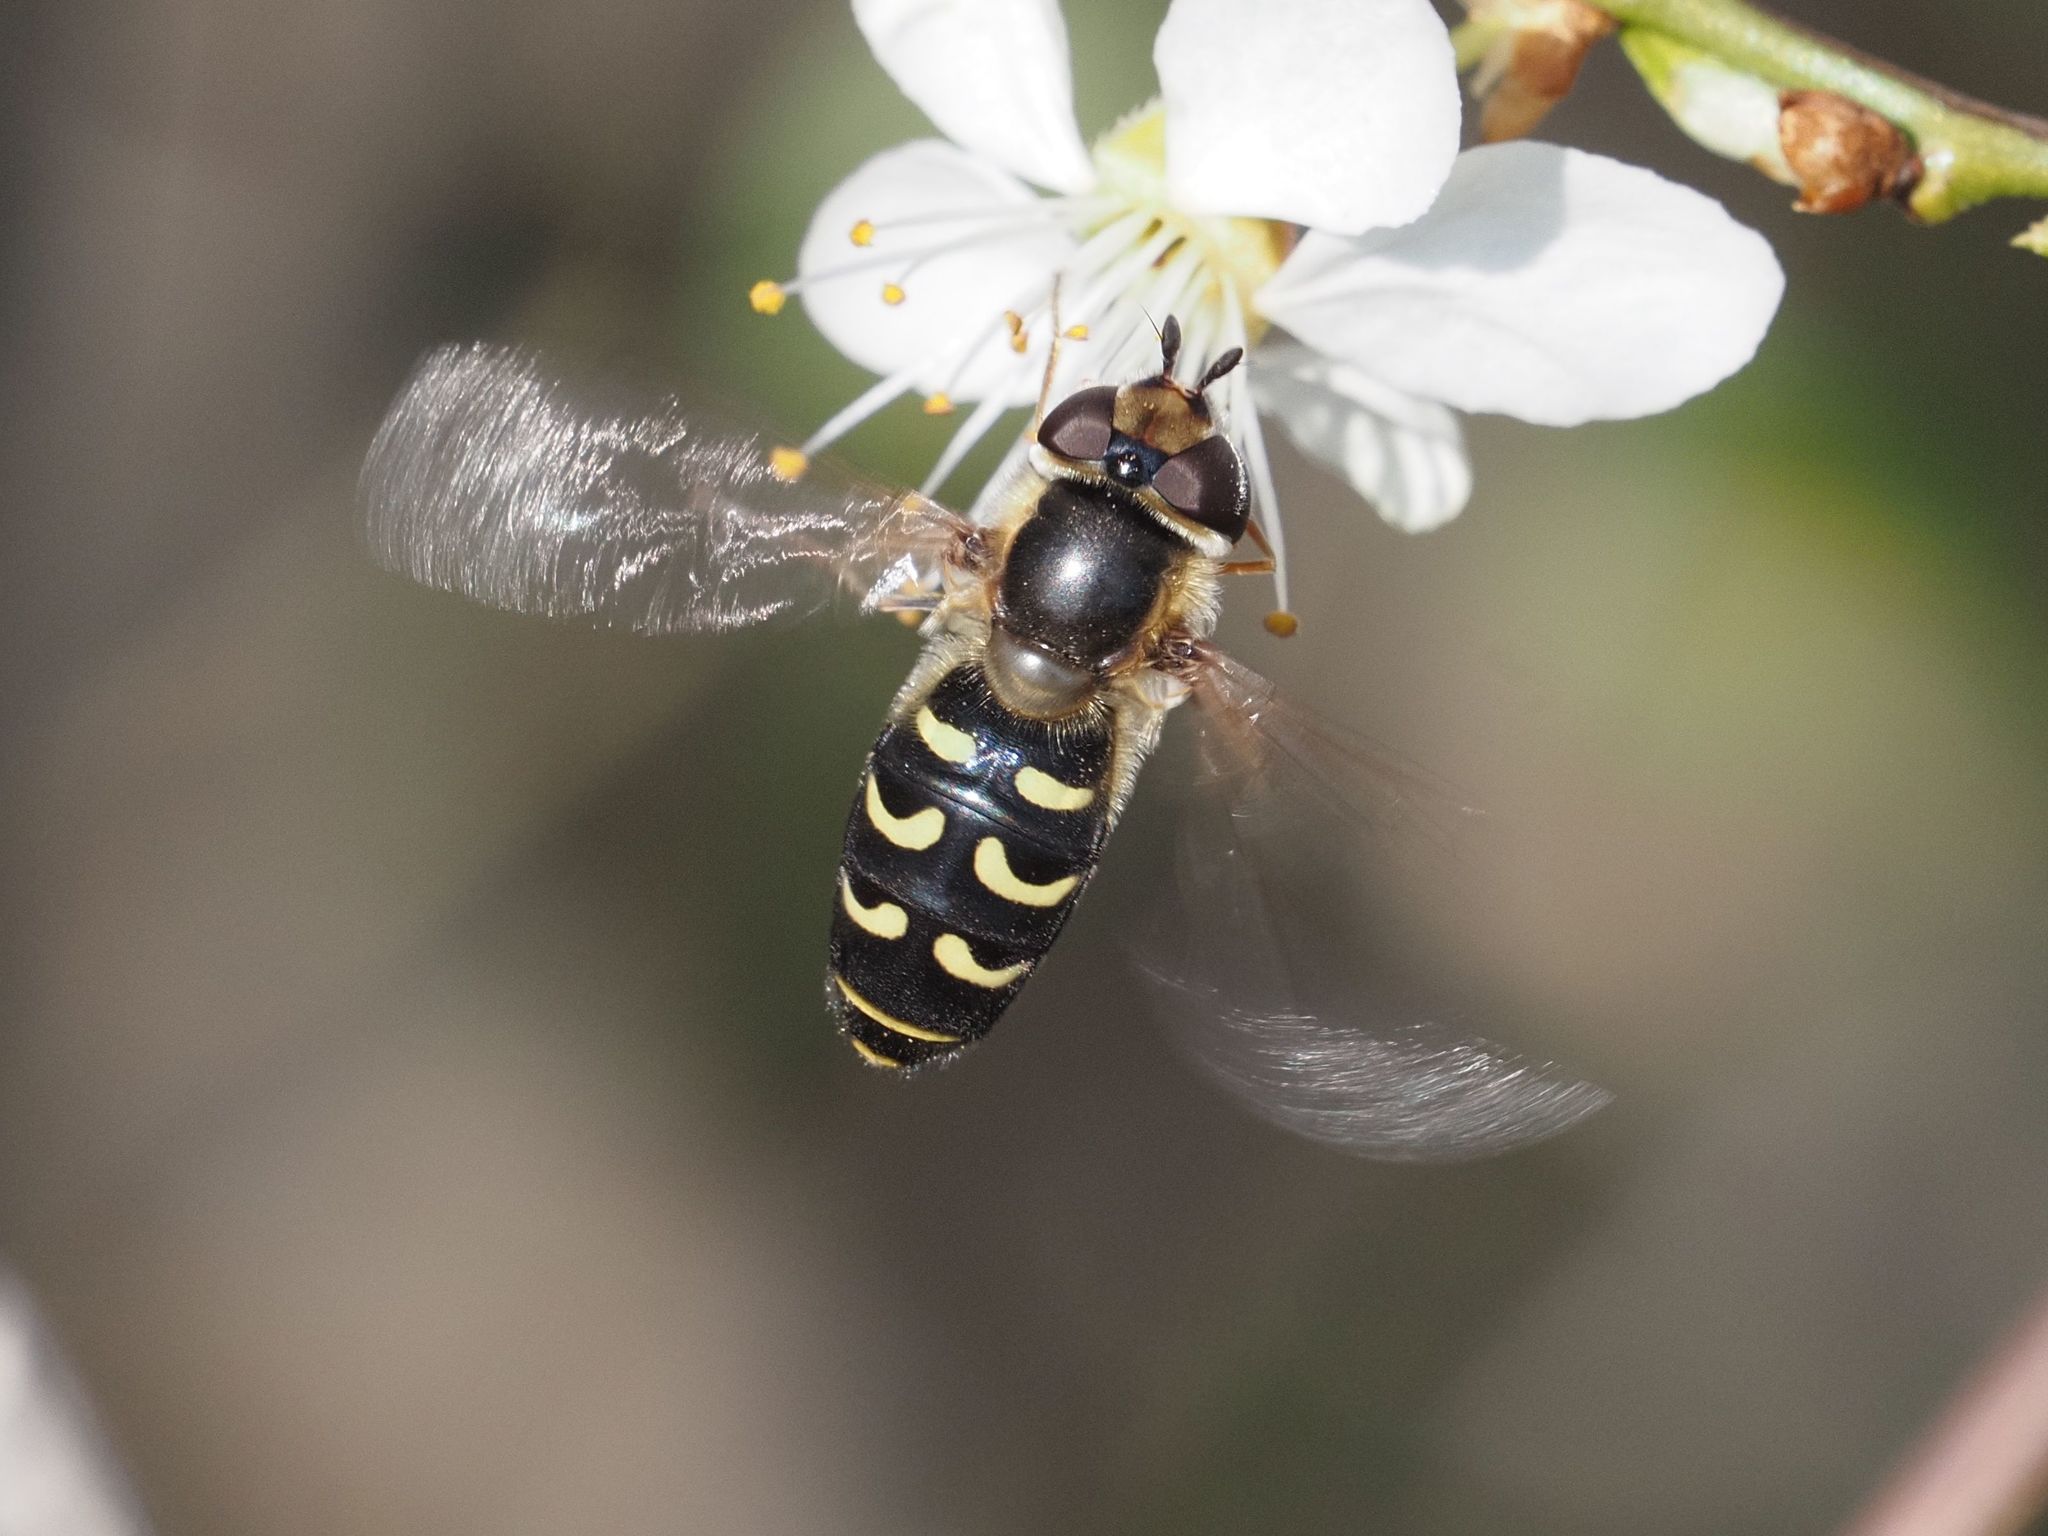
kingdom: Animalia
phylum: Arthropoda
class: Insecta
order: Diptera
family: Syrphidae
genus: Scaeva
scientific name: Scaeva selenitica
